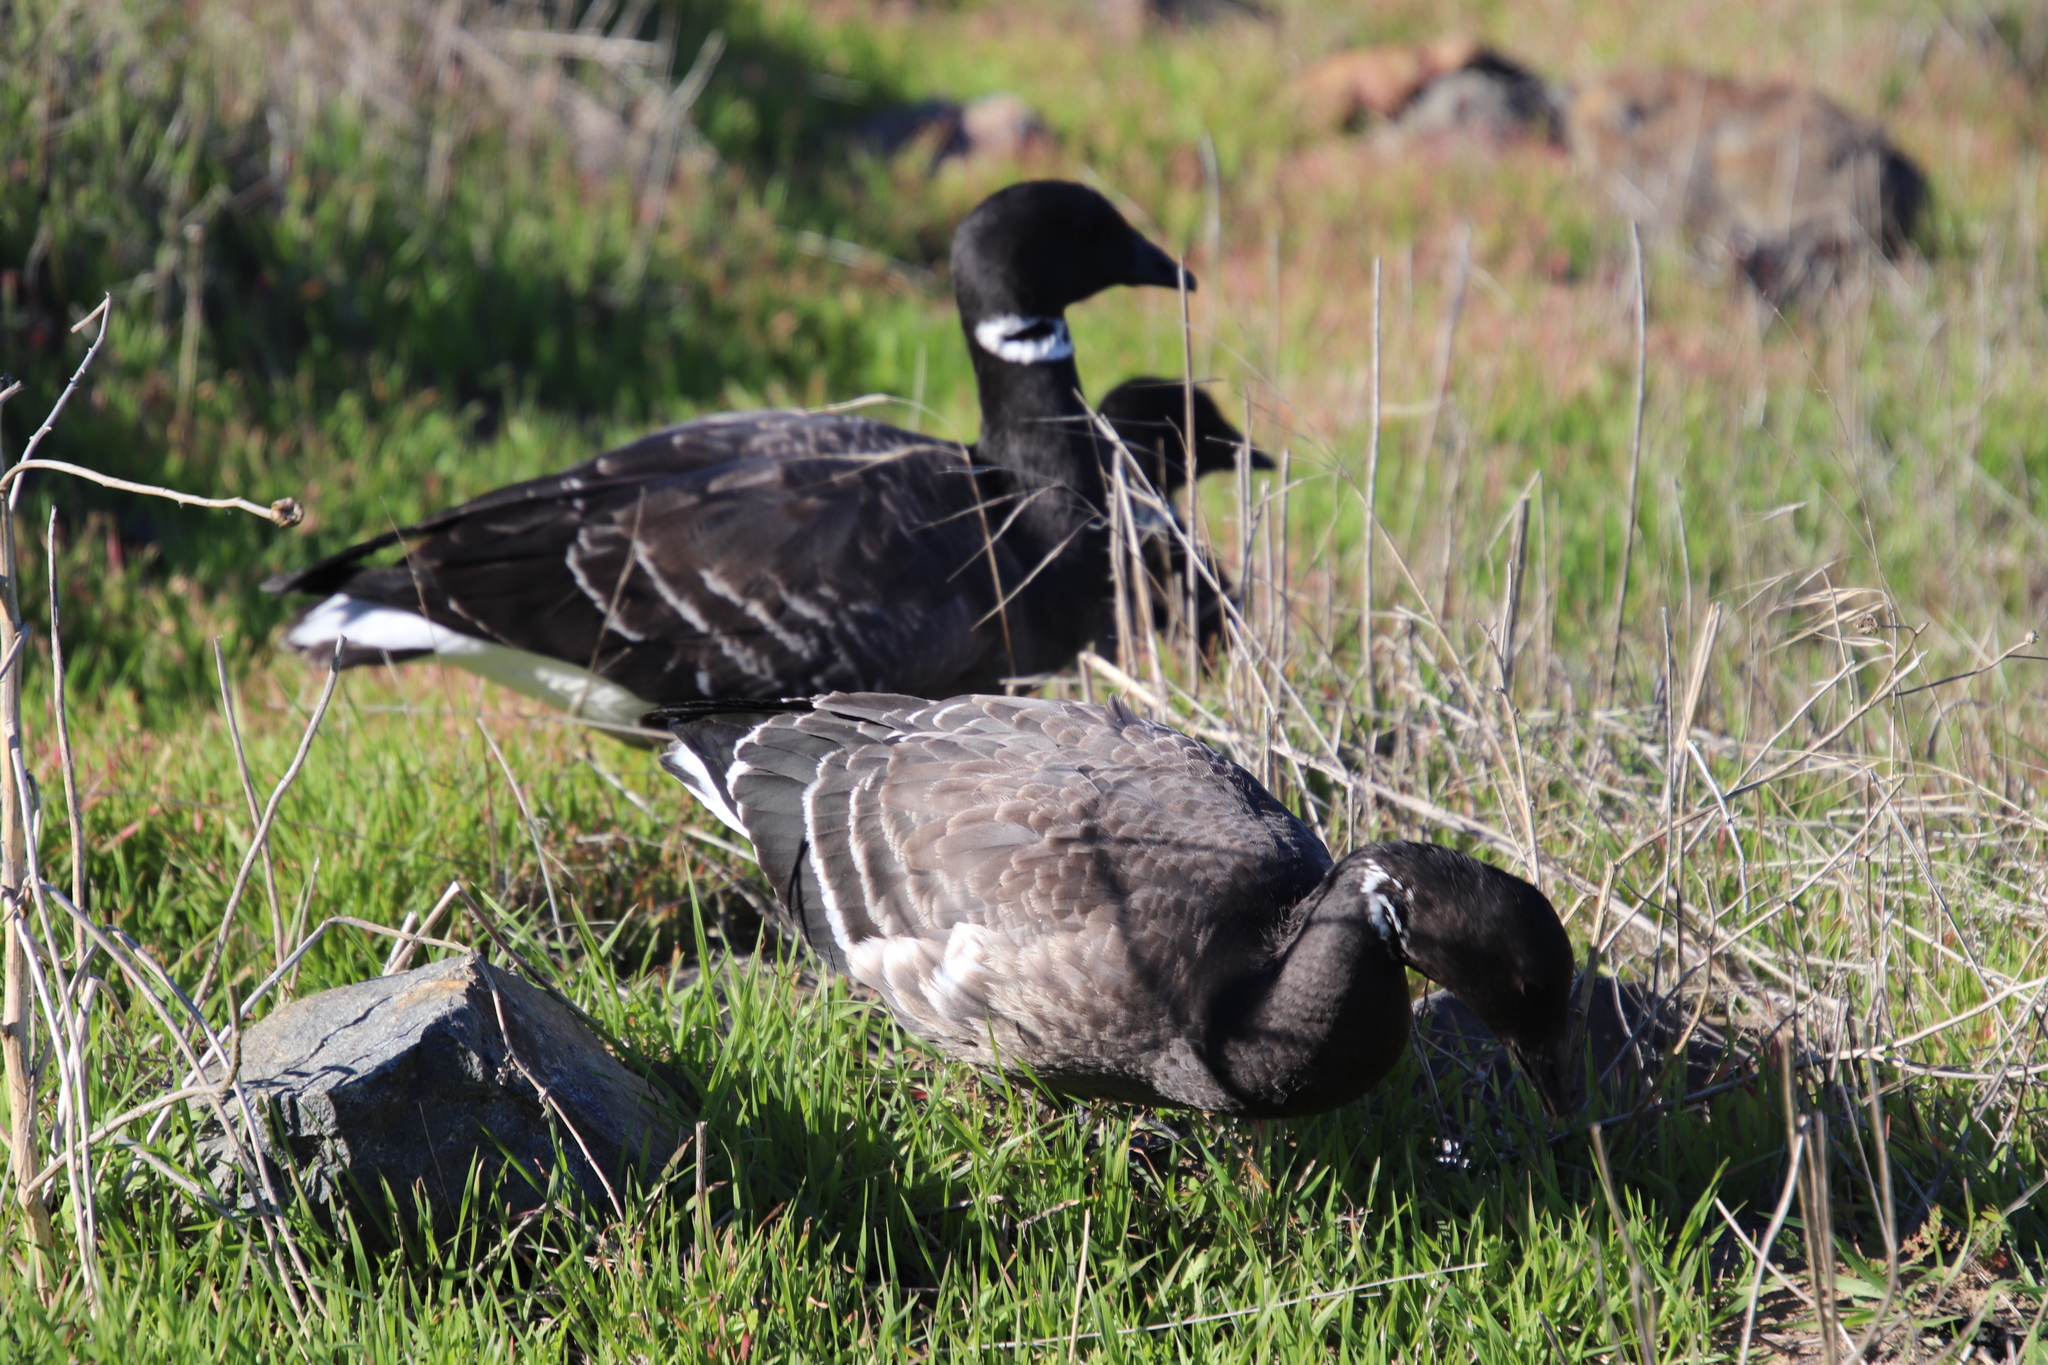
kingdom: Animalia
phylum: Chordata
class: Aves
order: Anseriformes
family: Anatidae
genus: Branta
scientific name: Branta bernicla
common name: Brant goose
